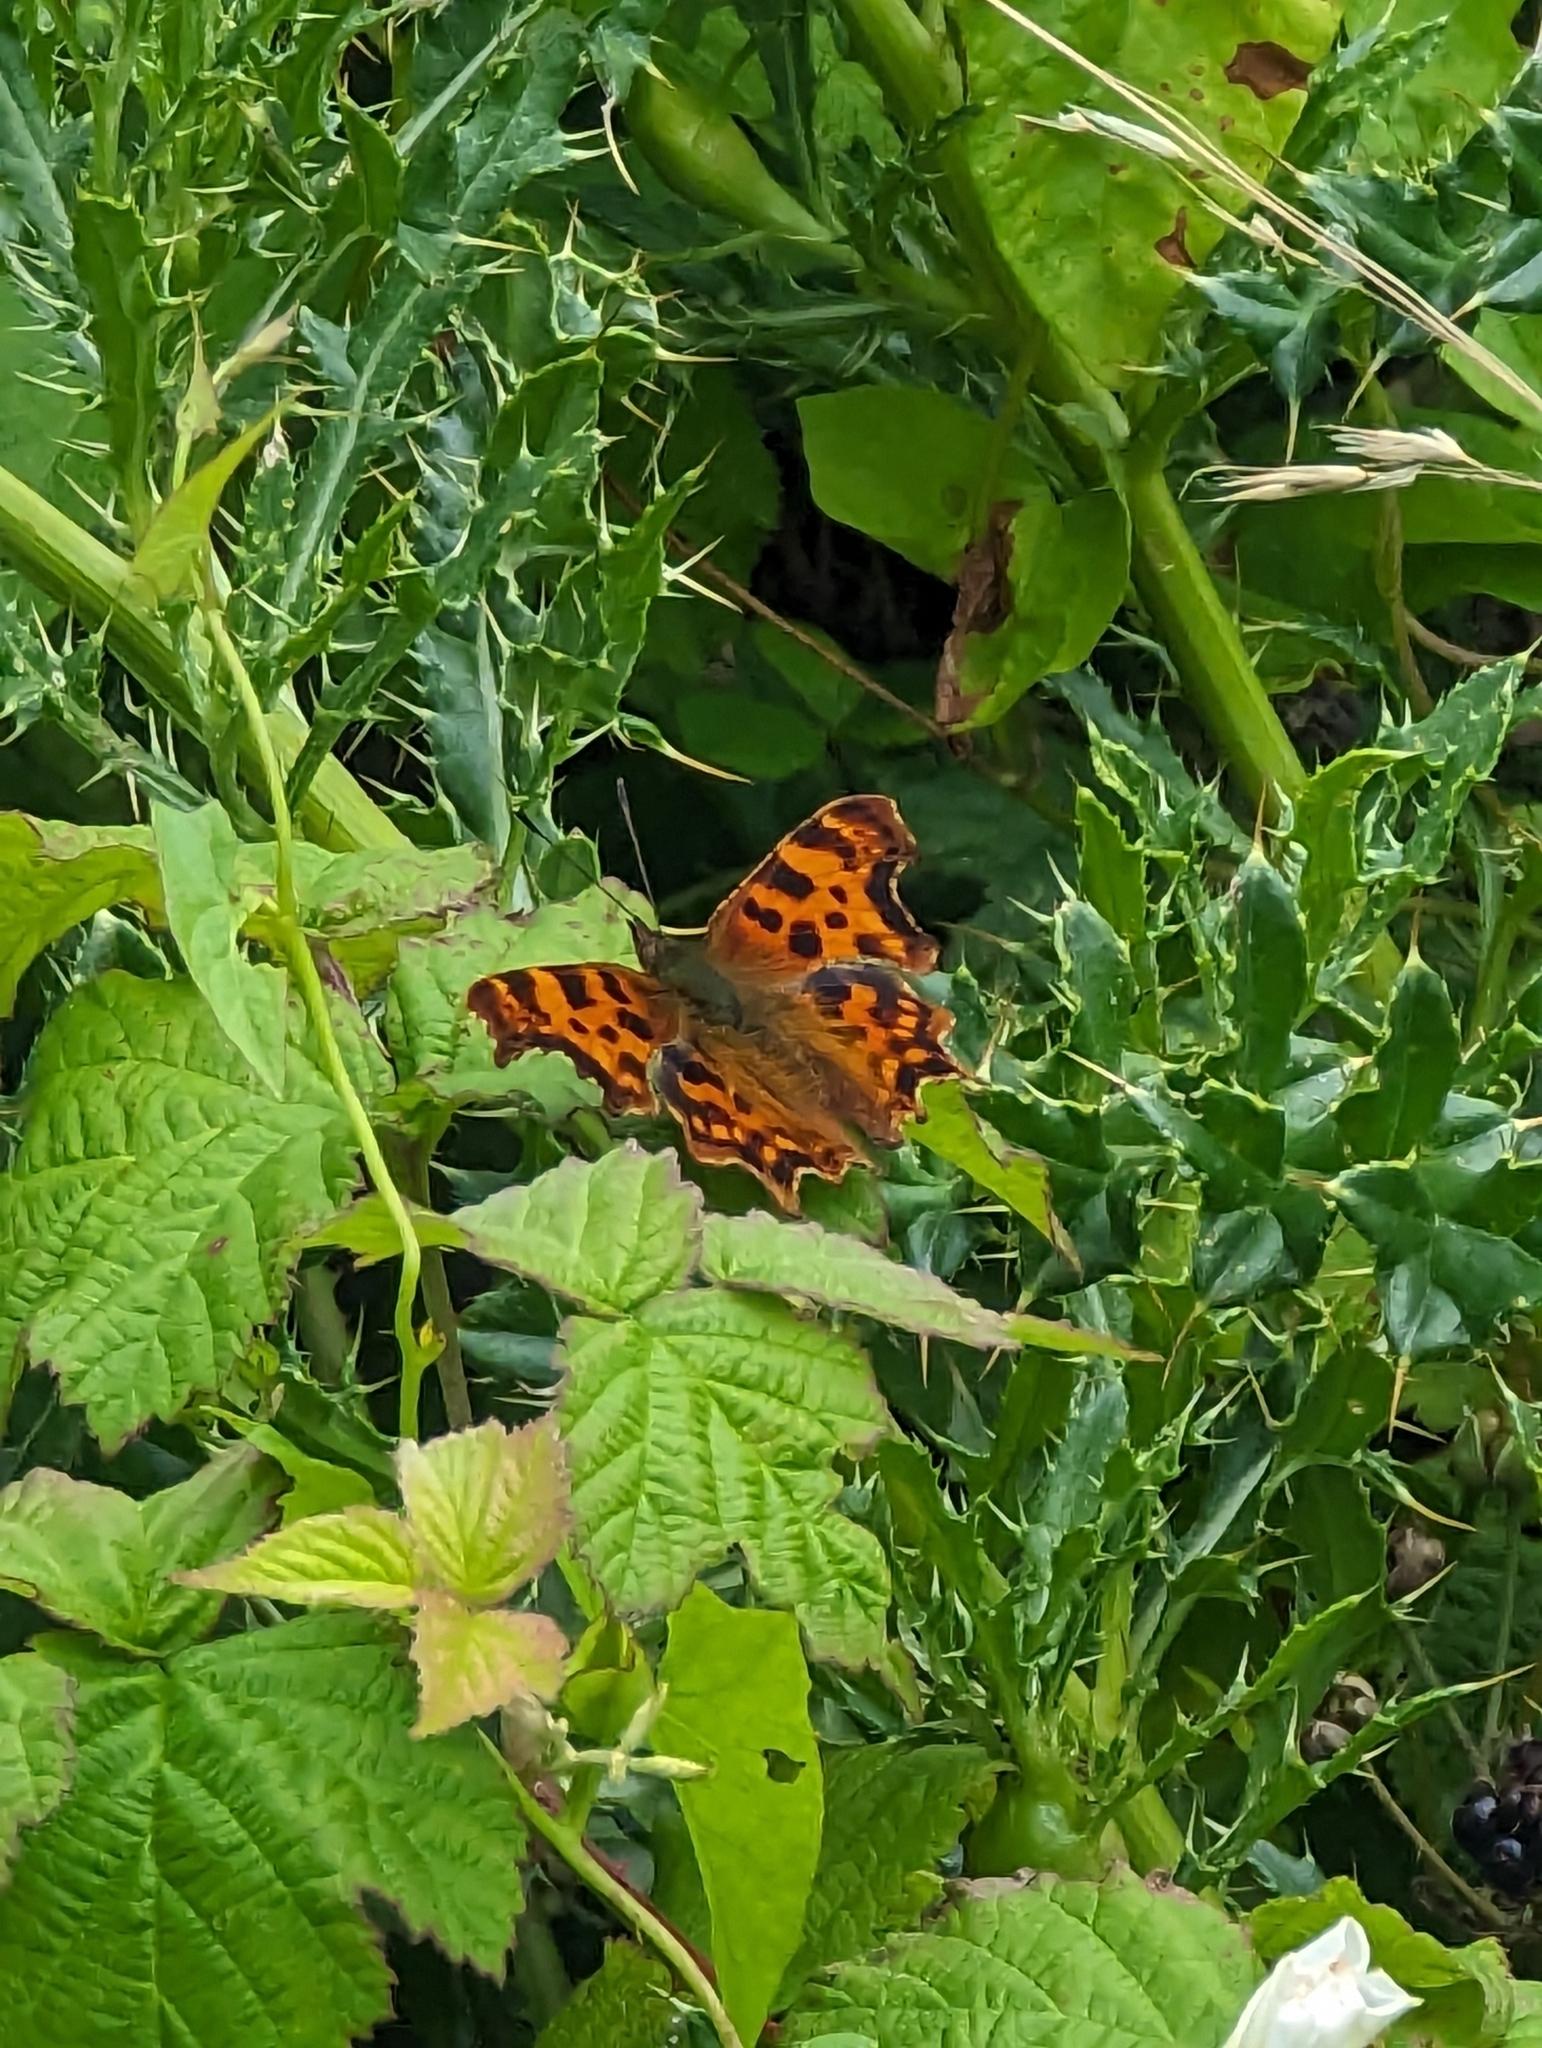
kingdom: Animalia
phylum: Arthropoda
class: Insecta
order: Lepidoptera
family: Nymphalidae
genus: Polygonia
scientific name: Polygonia c-album
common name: Comma
